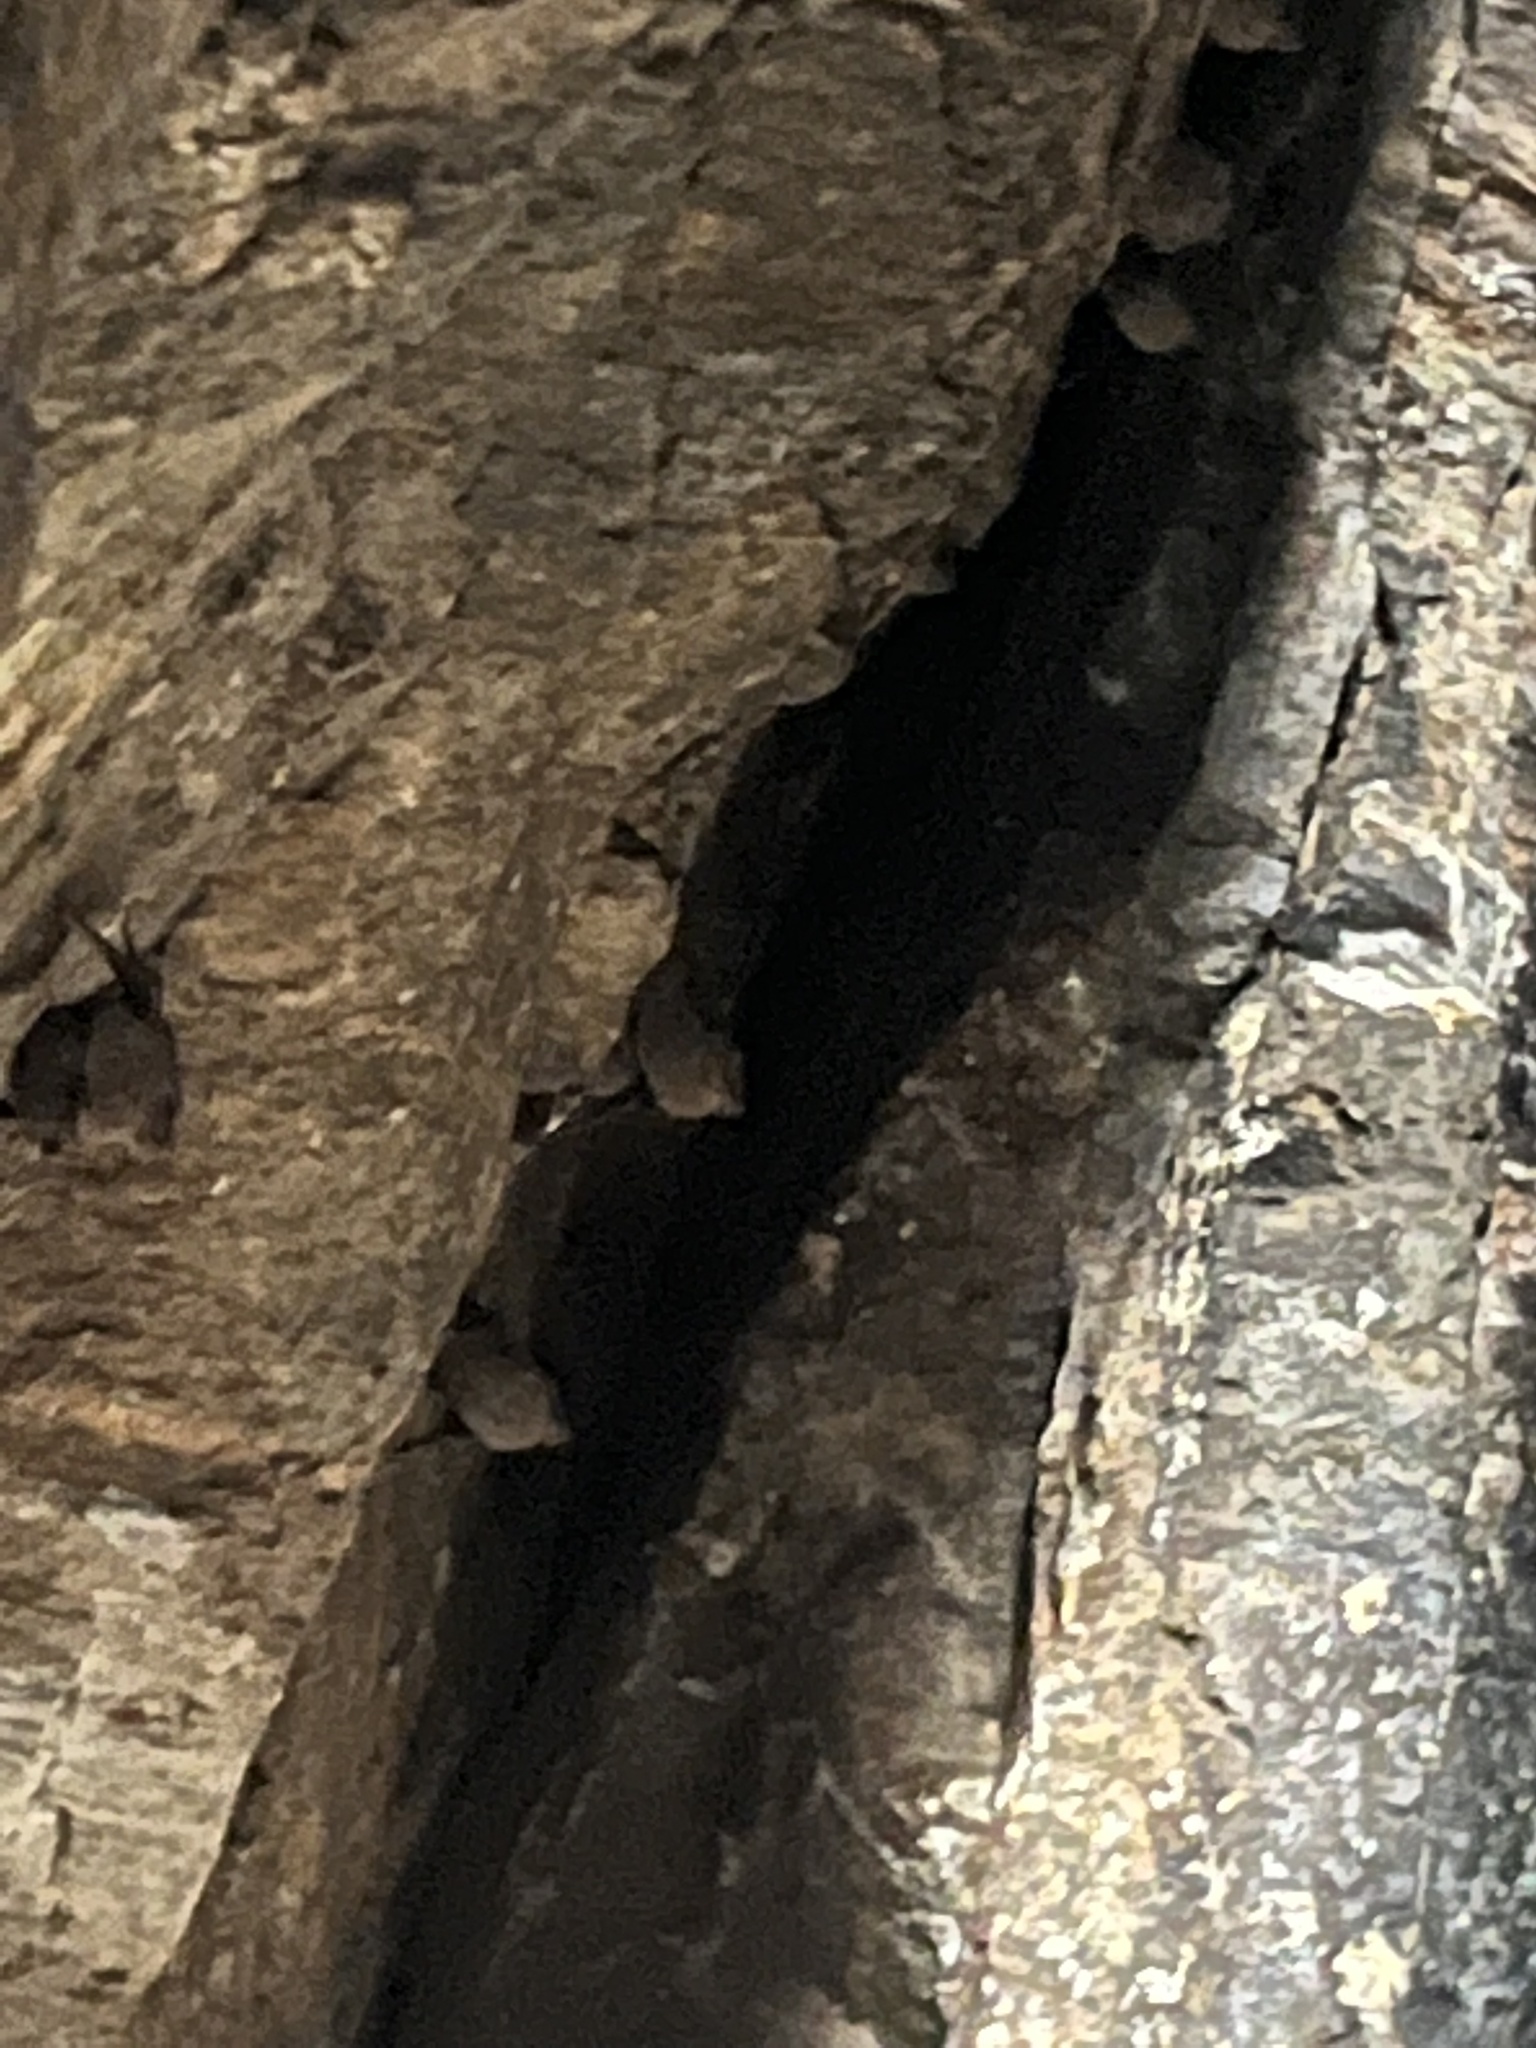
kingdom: Animalia
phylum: Chordata
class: Mammalia
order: Chiroptera
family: Emballonuridae
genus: Balantiopteryx
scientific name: Balantiopteryx plicata
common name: Gray sac-winged bat
